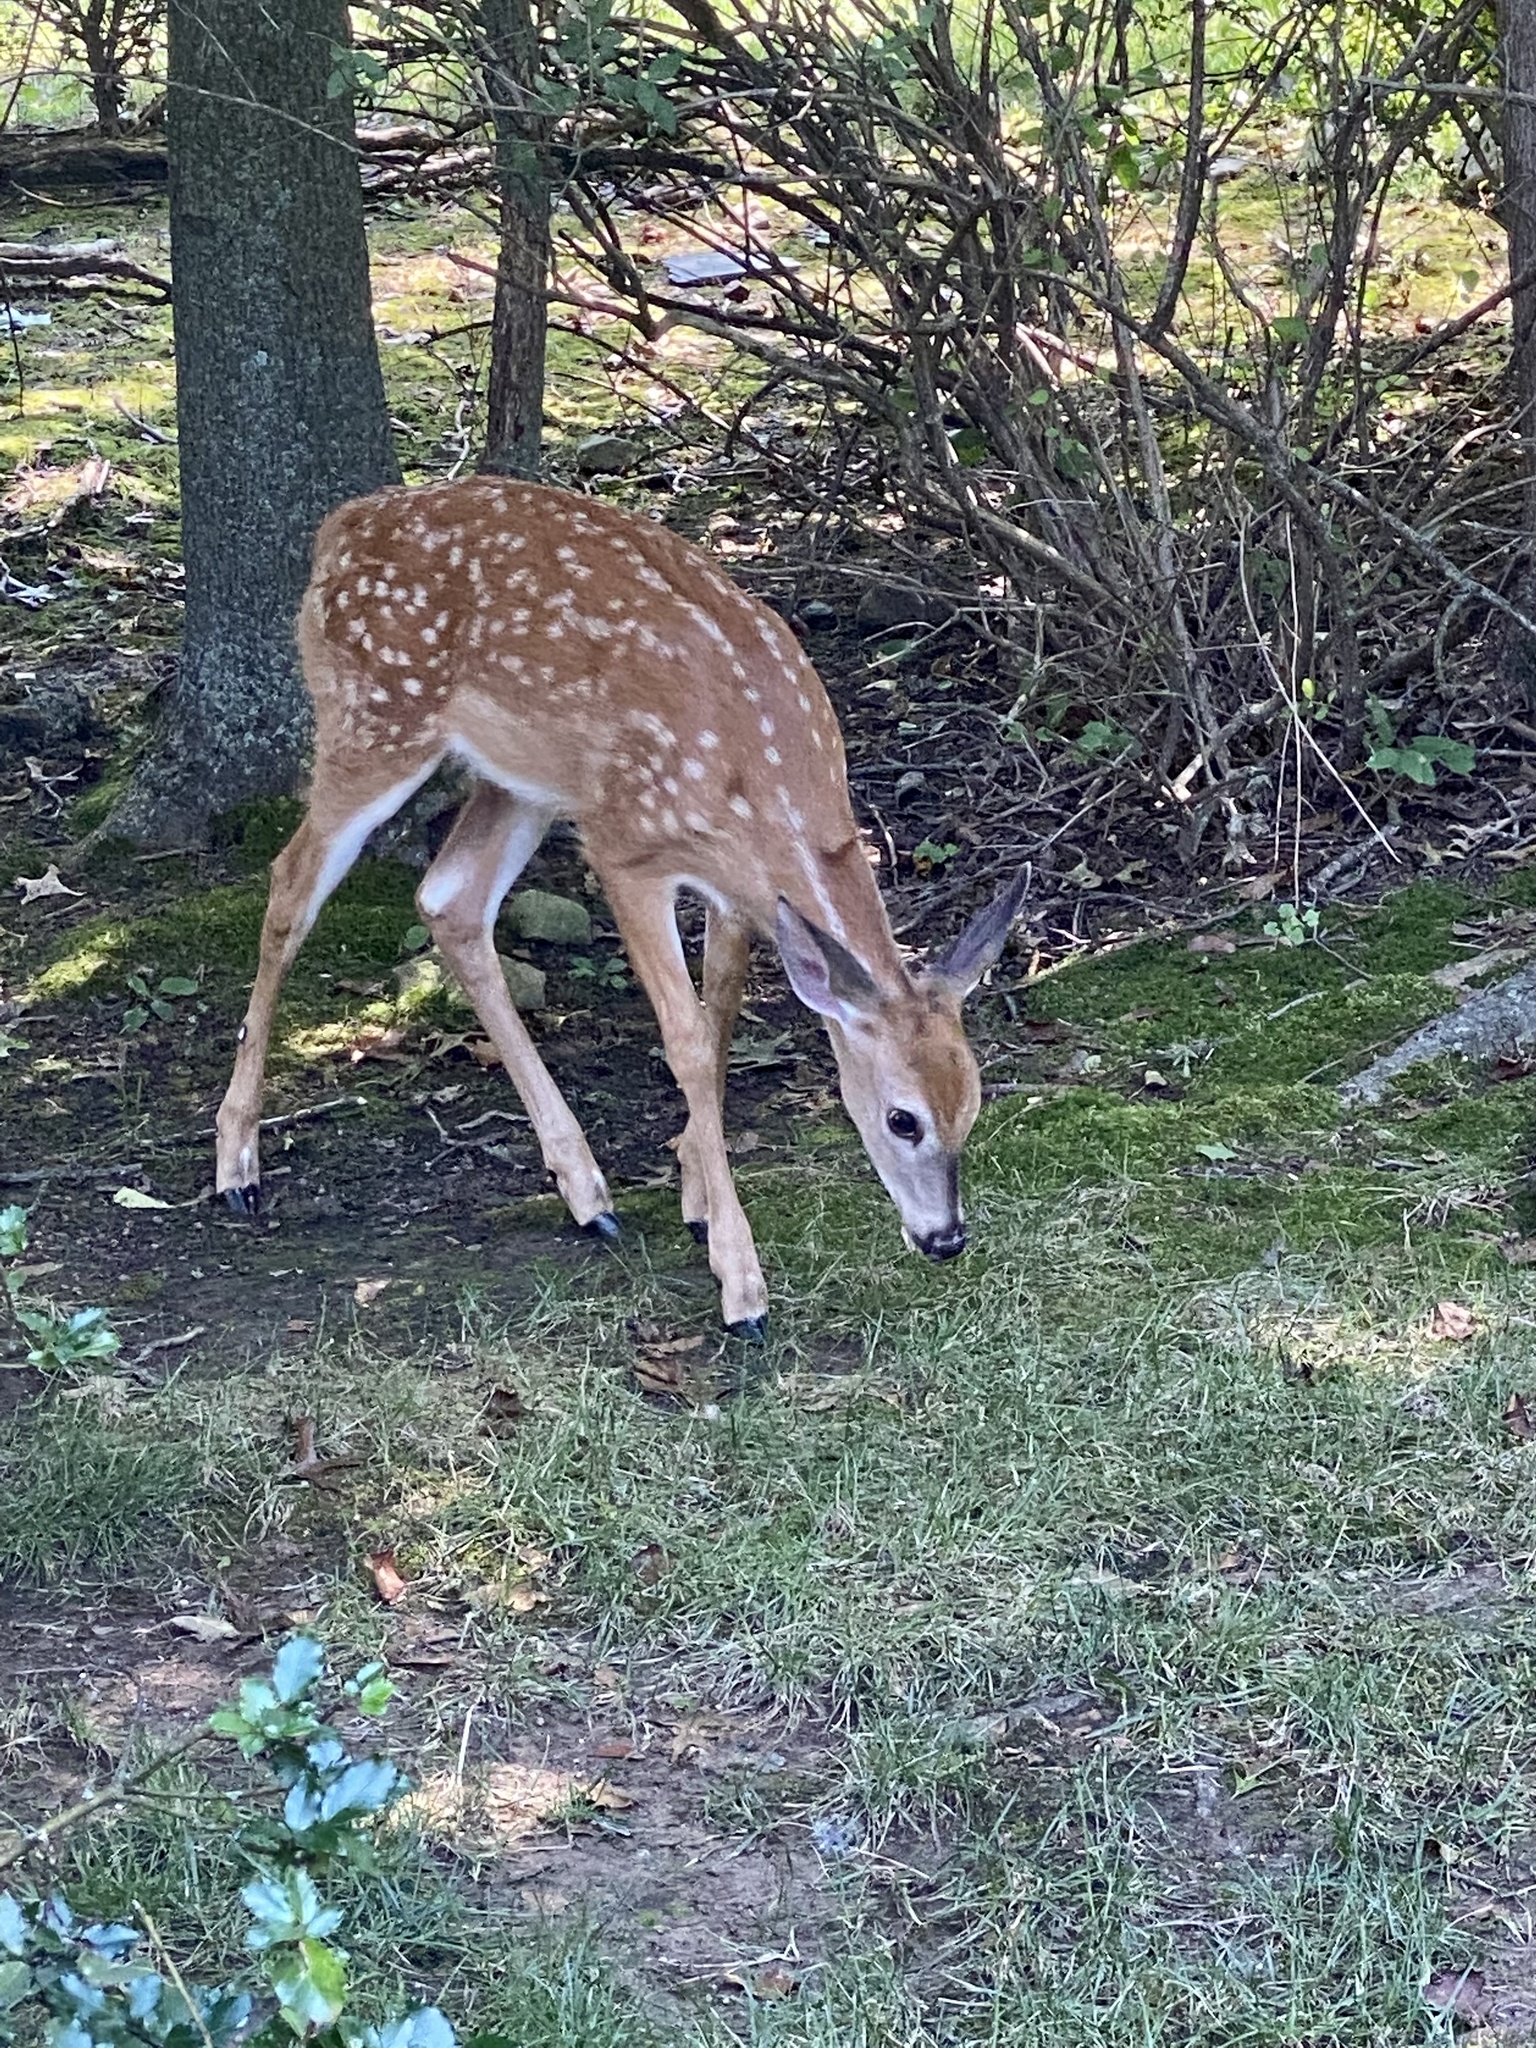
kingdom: Animalia
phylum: Chordata
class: Mammalia
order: Artiodactyla
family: Cervidae
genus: Odocoileus
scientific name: Odocoileus virginianus
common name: White-tailed deer
